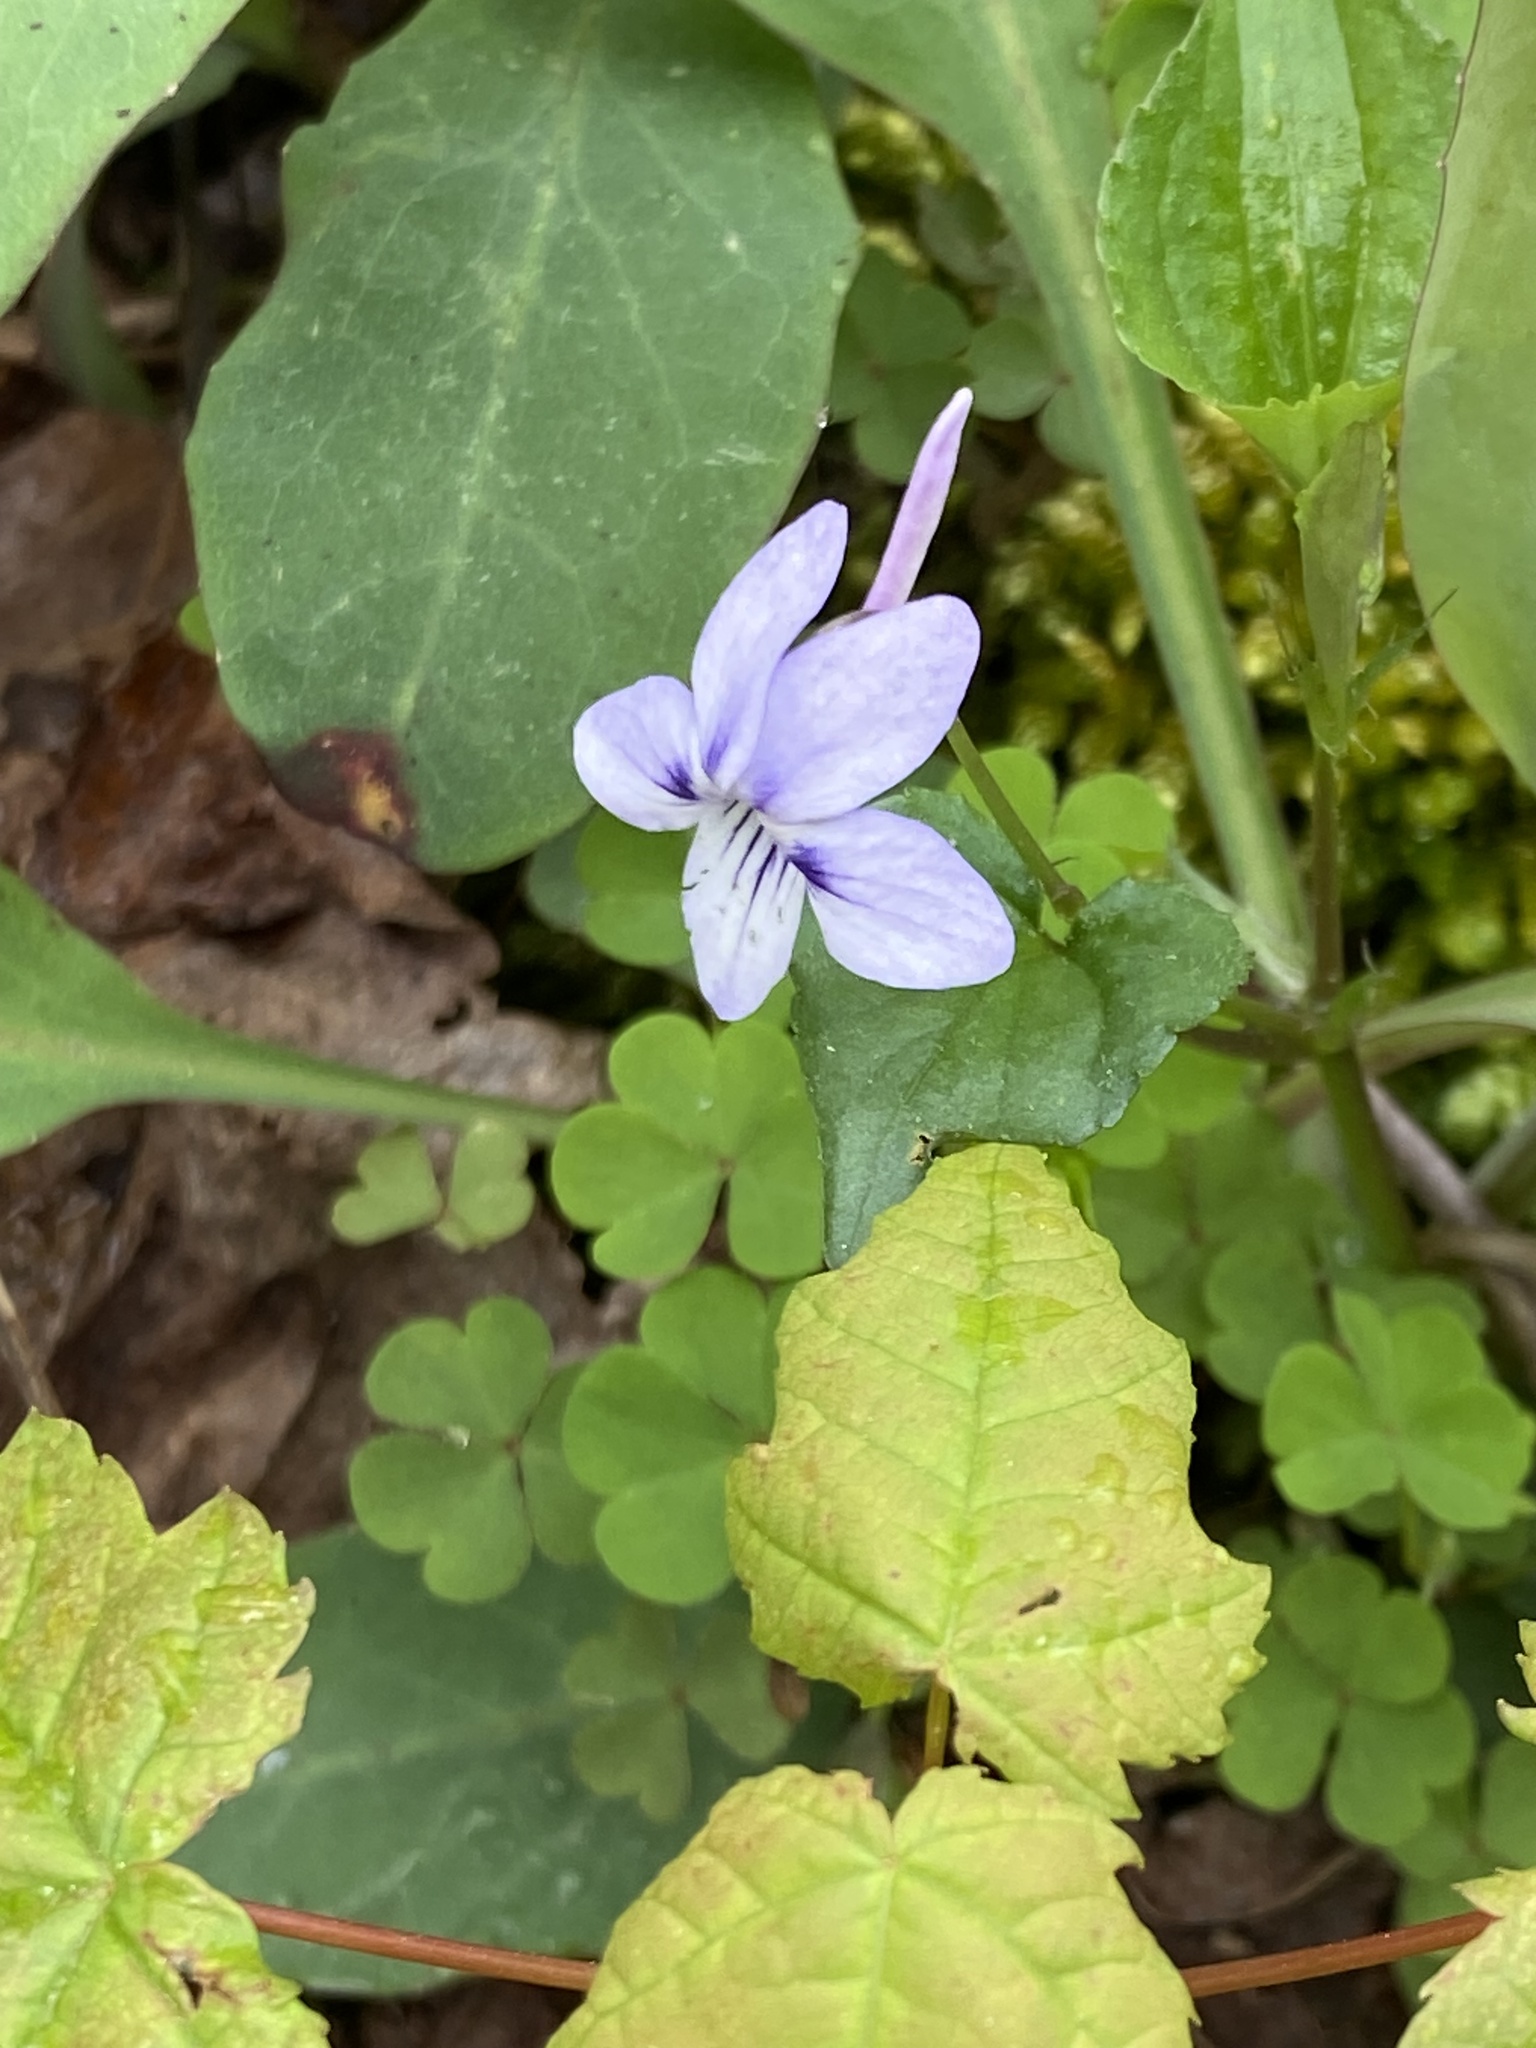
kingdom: Plantae
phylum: Tracheophyta
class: Magnoliopsida
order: Malpighiales
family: Violaceae
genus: Viola
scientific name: Viola rostrata
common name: Long-spur violet
